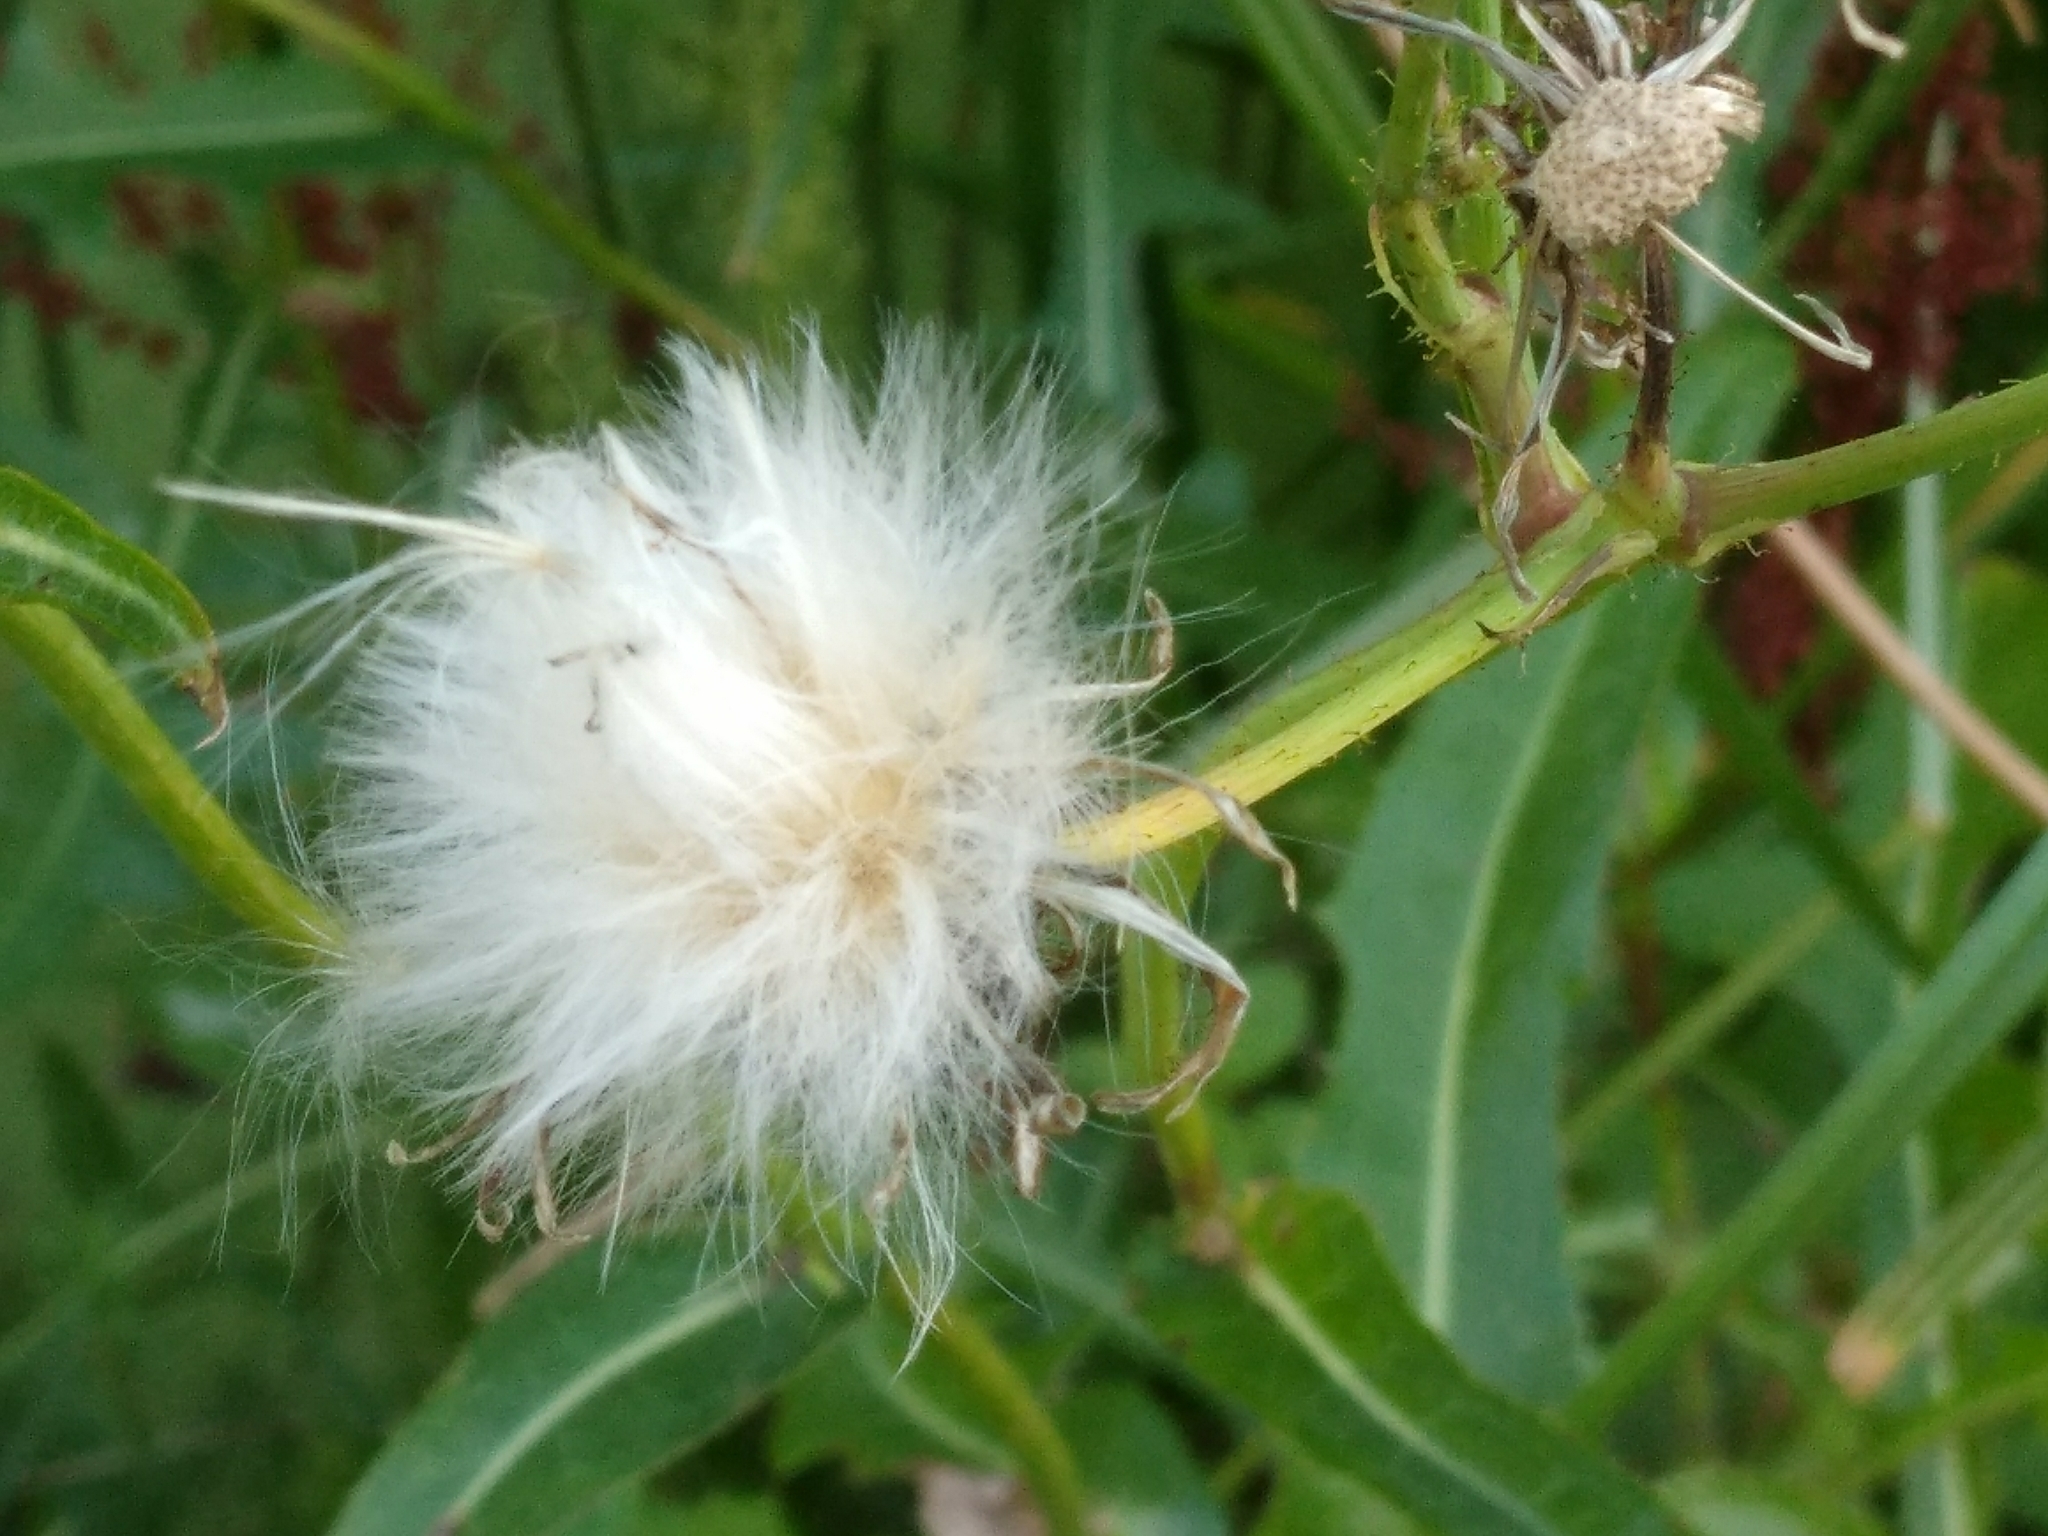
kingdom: Plantae
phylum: Tracheophyta
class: Magnoliopsida
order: Asterales
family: Asteraceae
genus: Sonchus
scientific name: Sonchus arvensis
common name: Perennial sow-thistle
